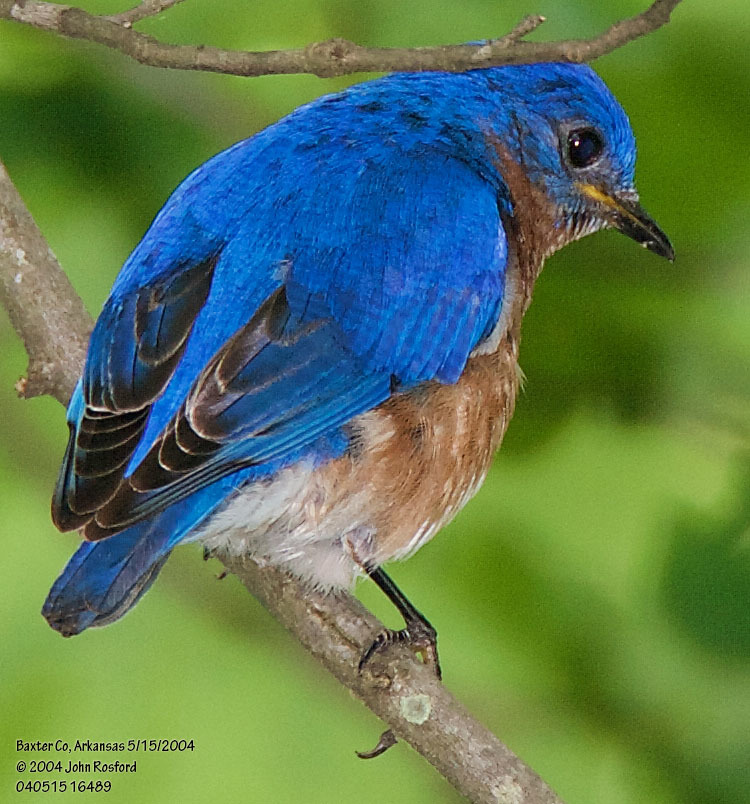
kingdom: Animalia
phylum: Chordata
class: Aves
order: Passeriformes
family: Turdidae
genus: Sialia
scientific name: Sialia sialis
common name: Eastern bluebird
